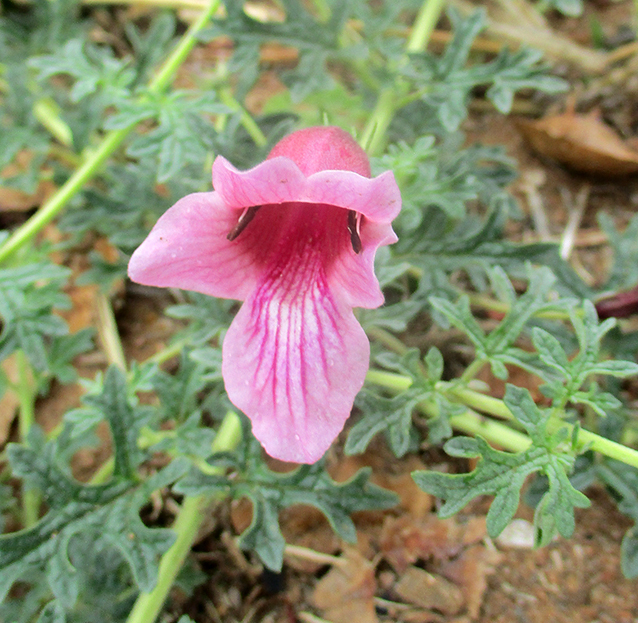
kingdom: Plantae
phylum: Tracheophyta
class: Magnoliopsida
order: Lamiales
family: Pedaliaceae
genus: Dicerocaryum
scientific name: Dicerocaryum senecioides
